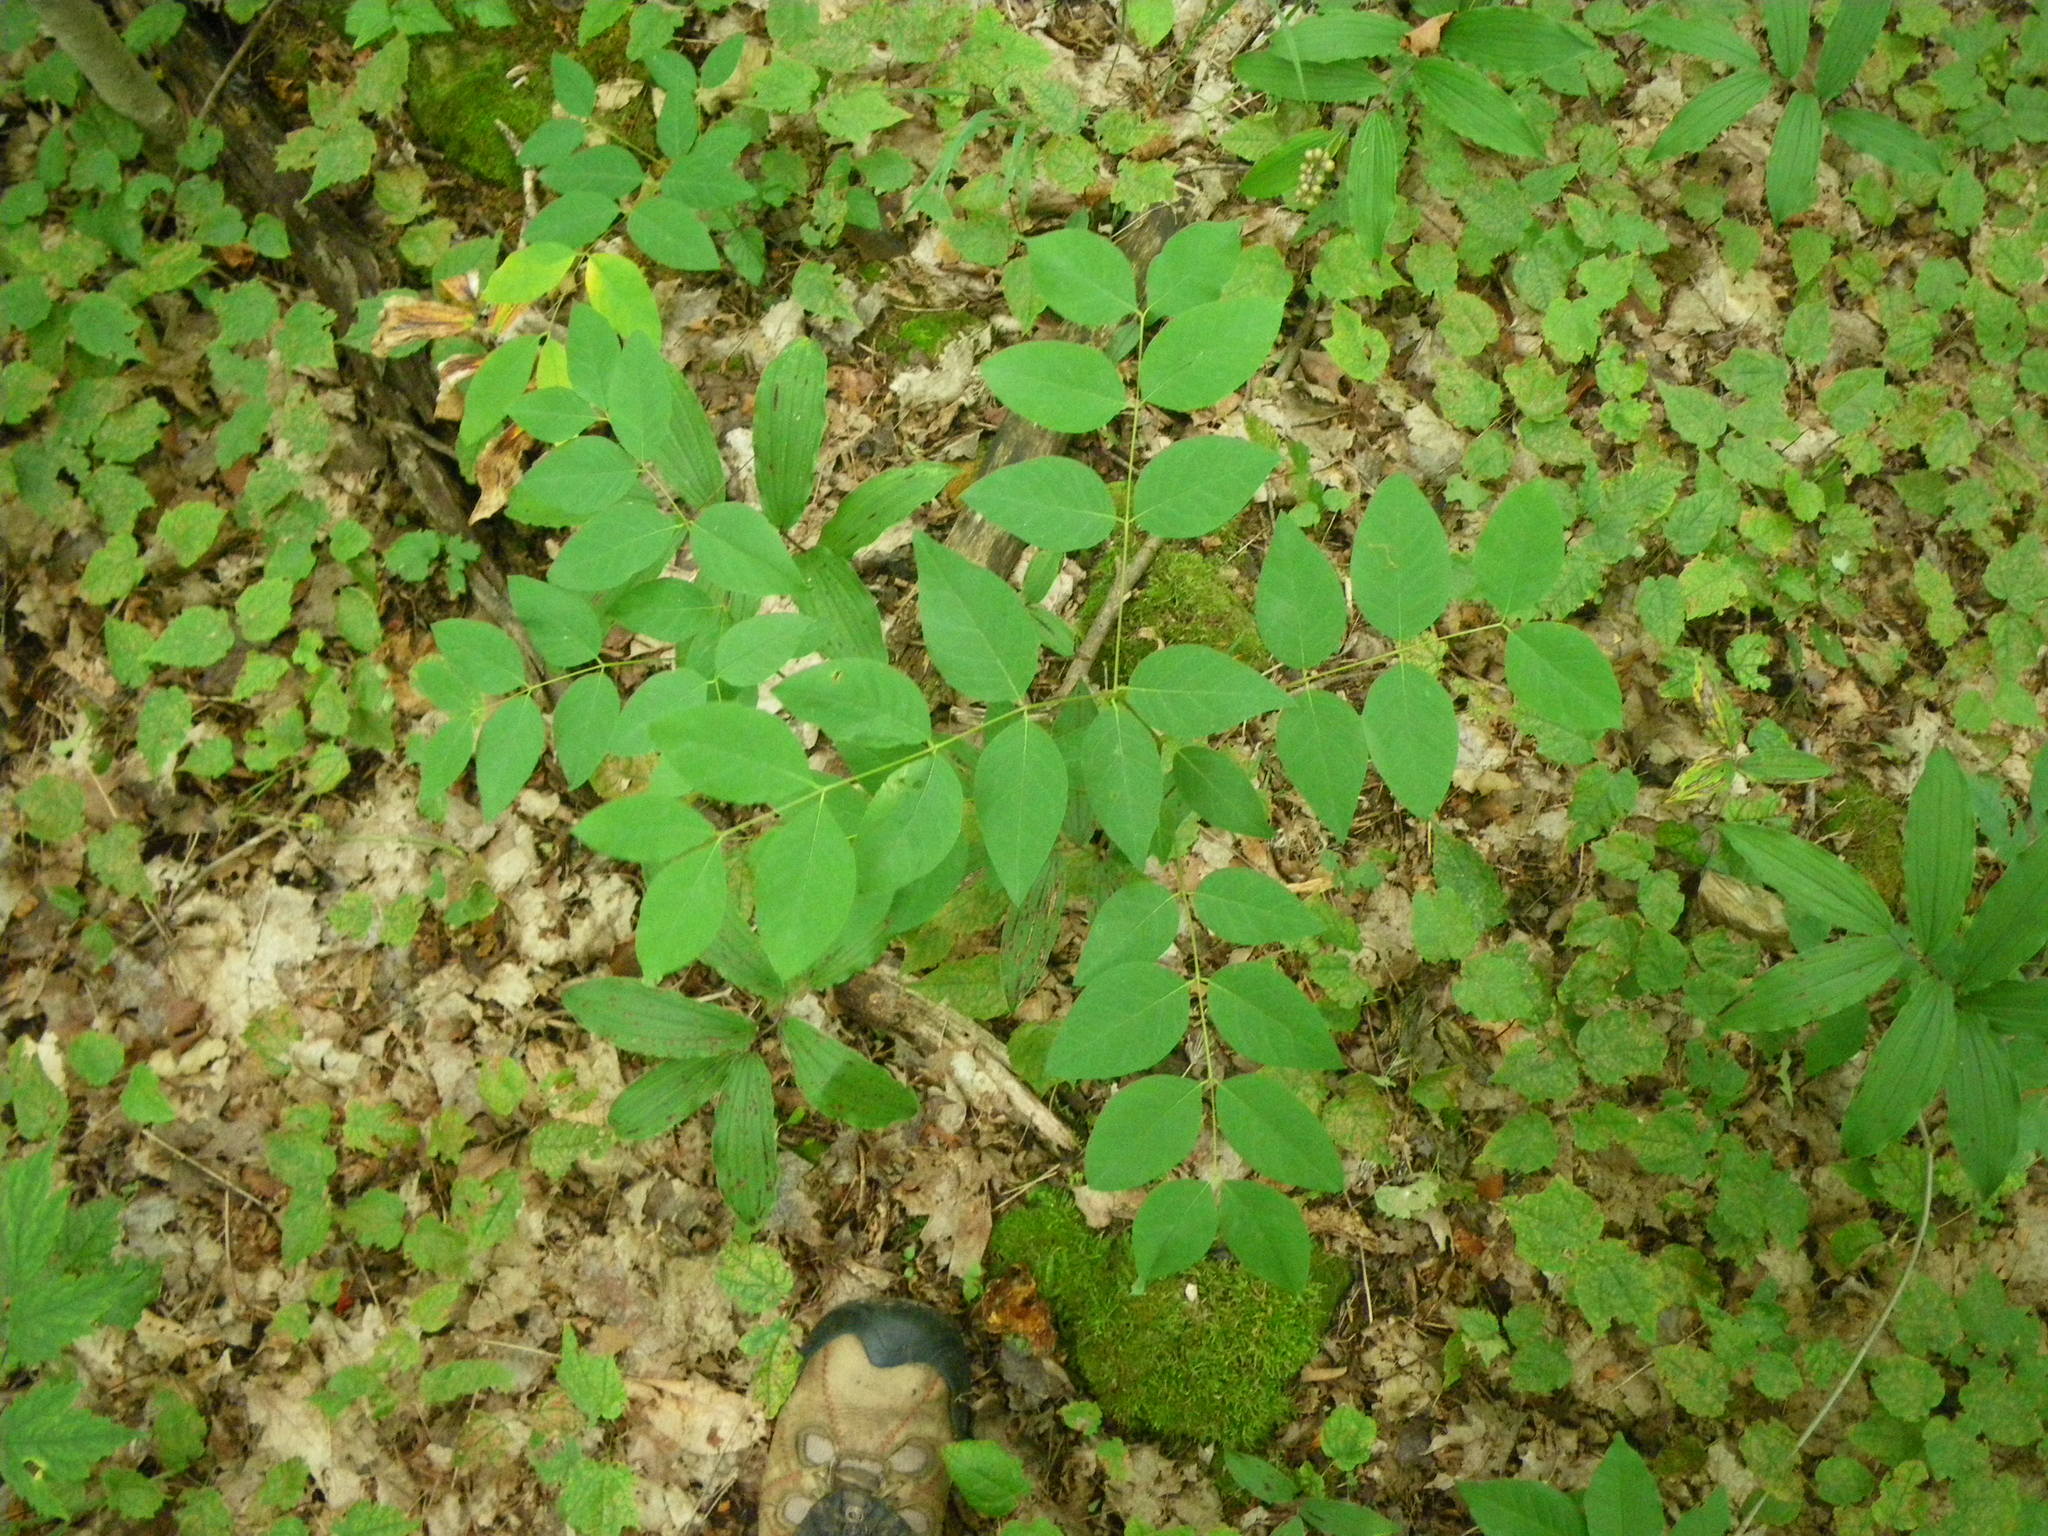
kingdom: Plantae
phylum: Tracheophyta
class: Magnoliopsida
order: Gentianales
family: Apocynaceae
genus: Apocynum
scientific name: Apocynum cannabinum
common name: Hemp dogbane
